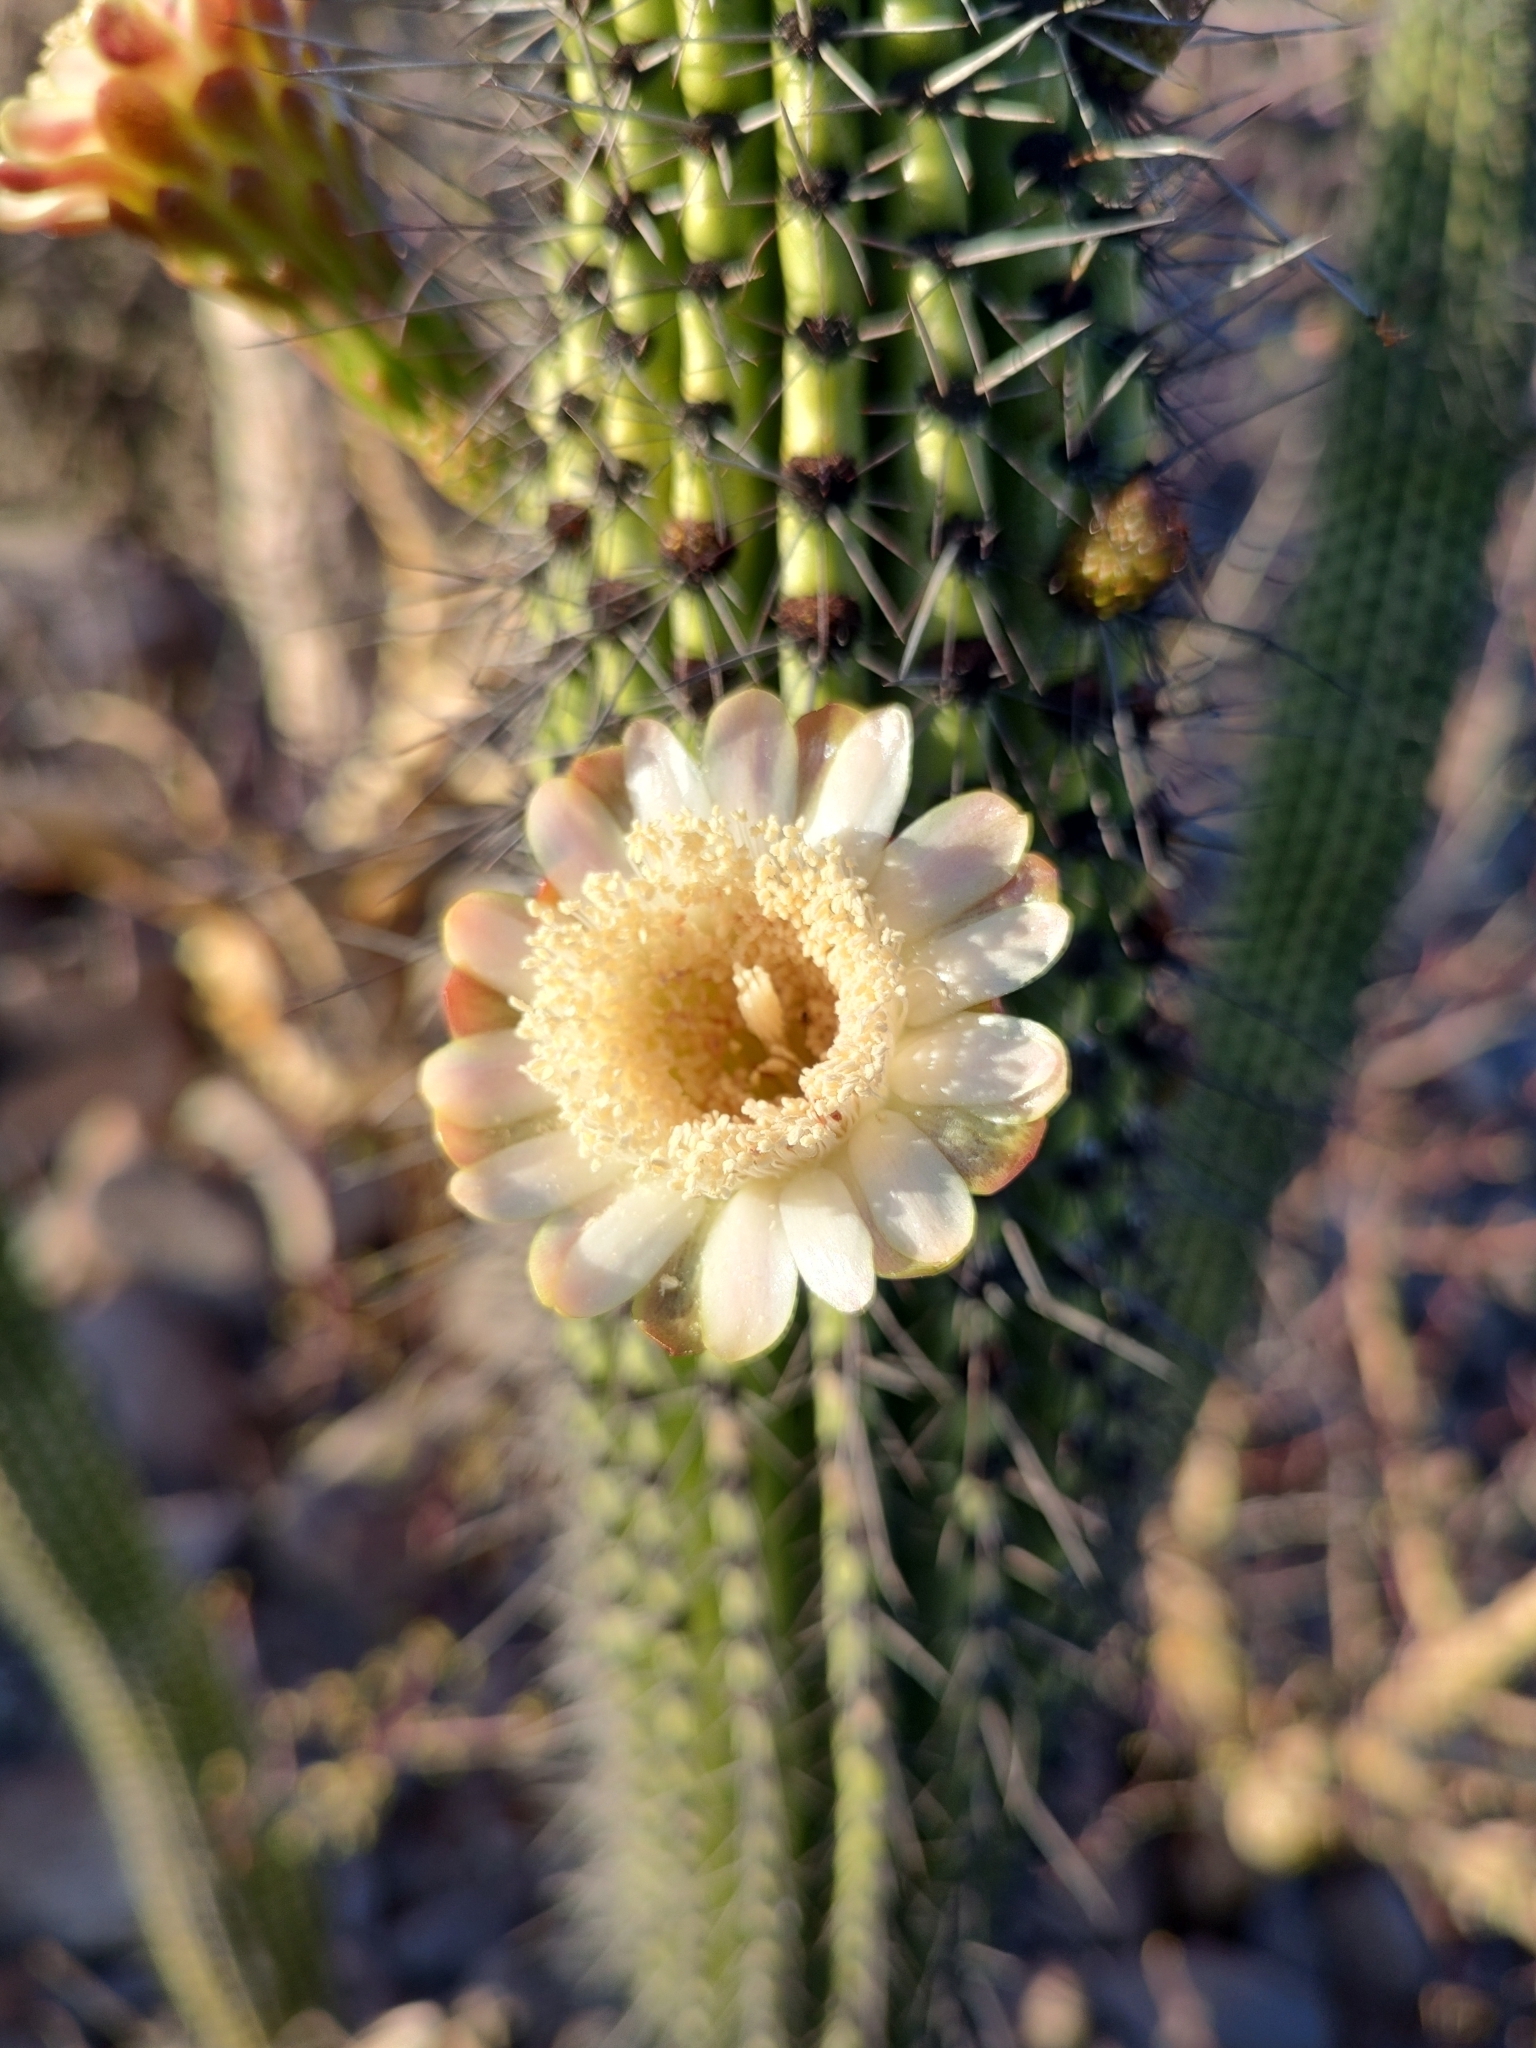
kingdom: Plantae
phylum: Tracheophyta
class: Magnoliopsida
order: Caryophyllales
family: Cactaceae
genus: Stenocereus
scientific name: Stenocereus thurberi
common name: Organ pipe cactus
